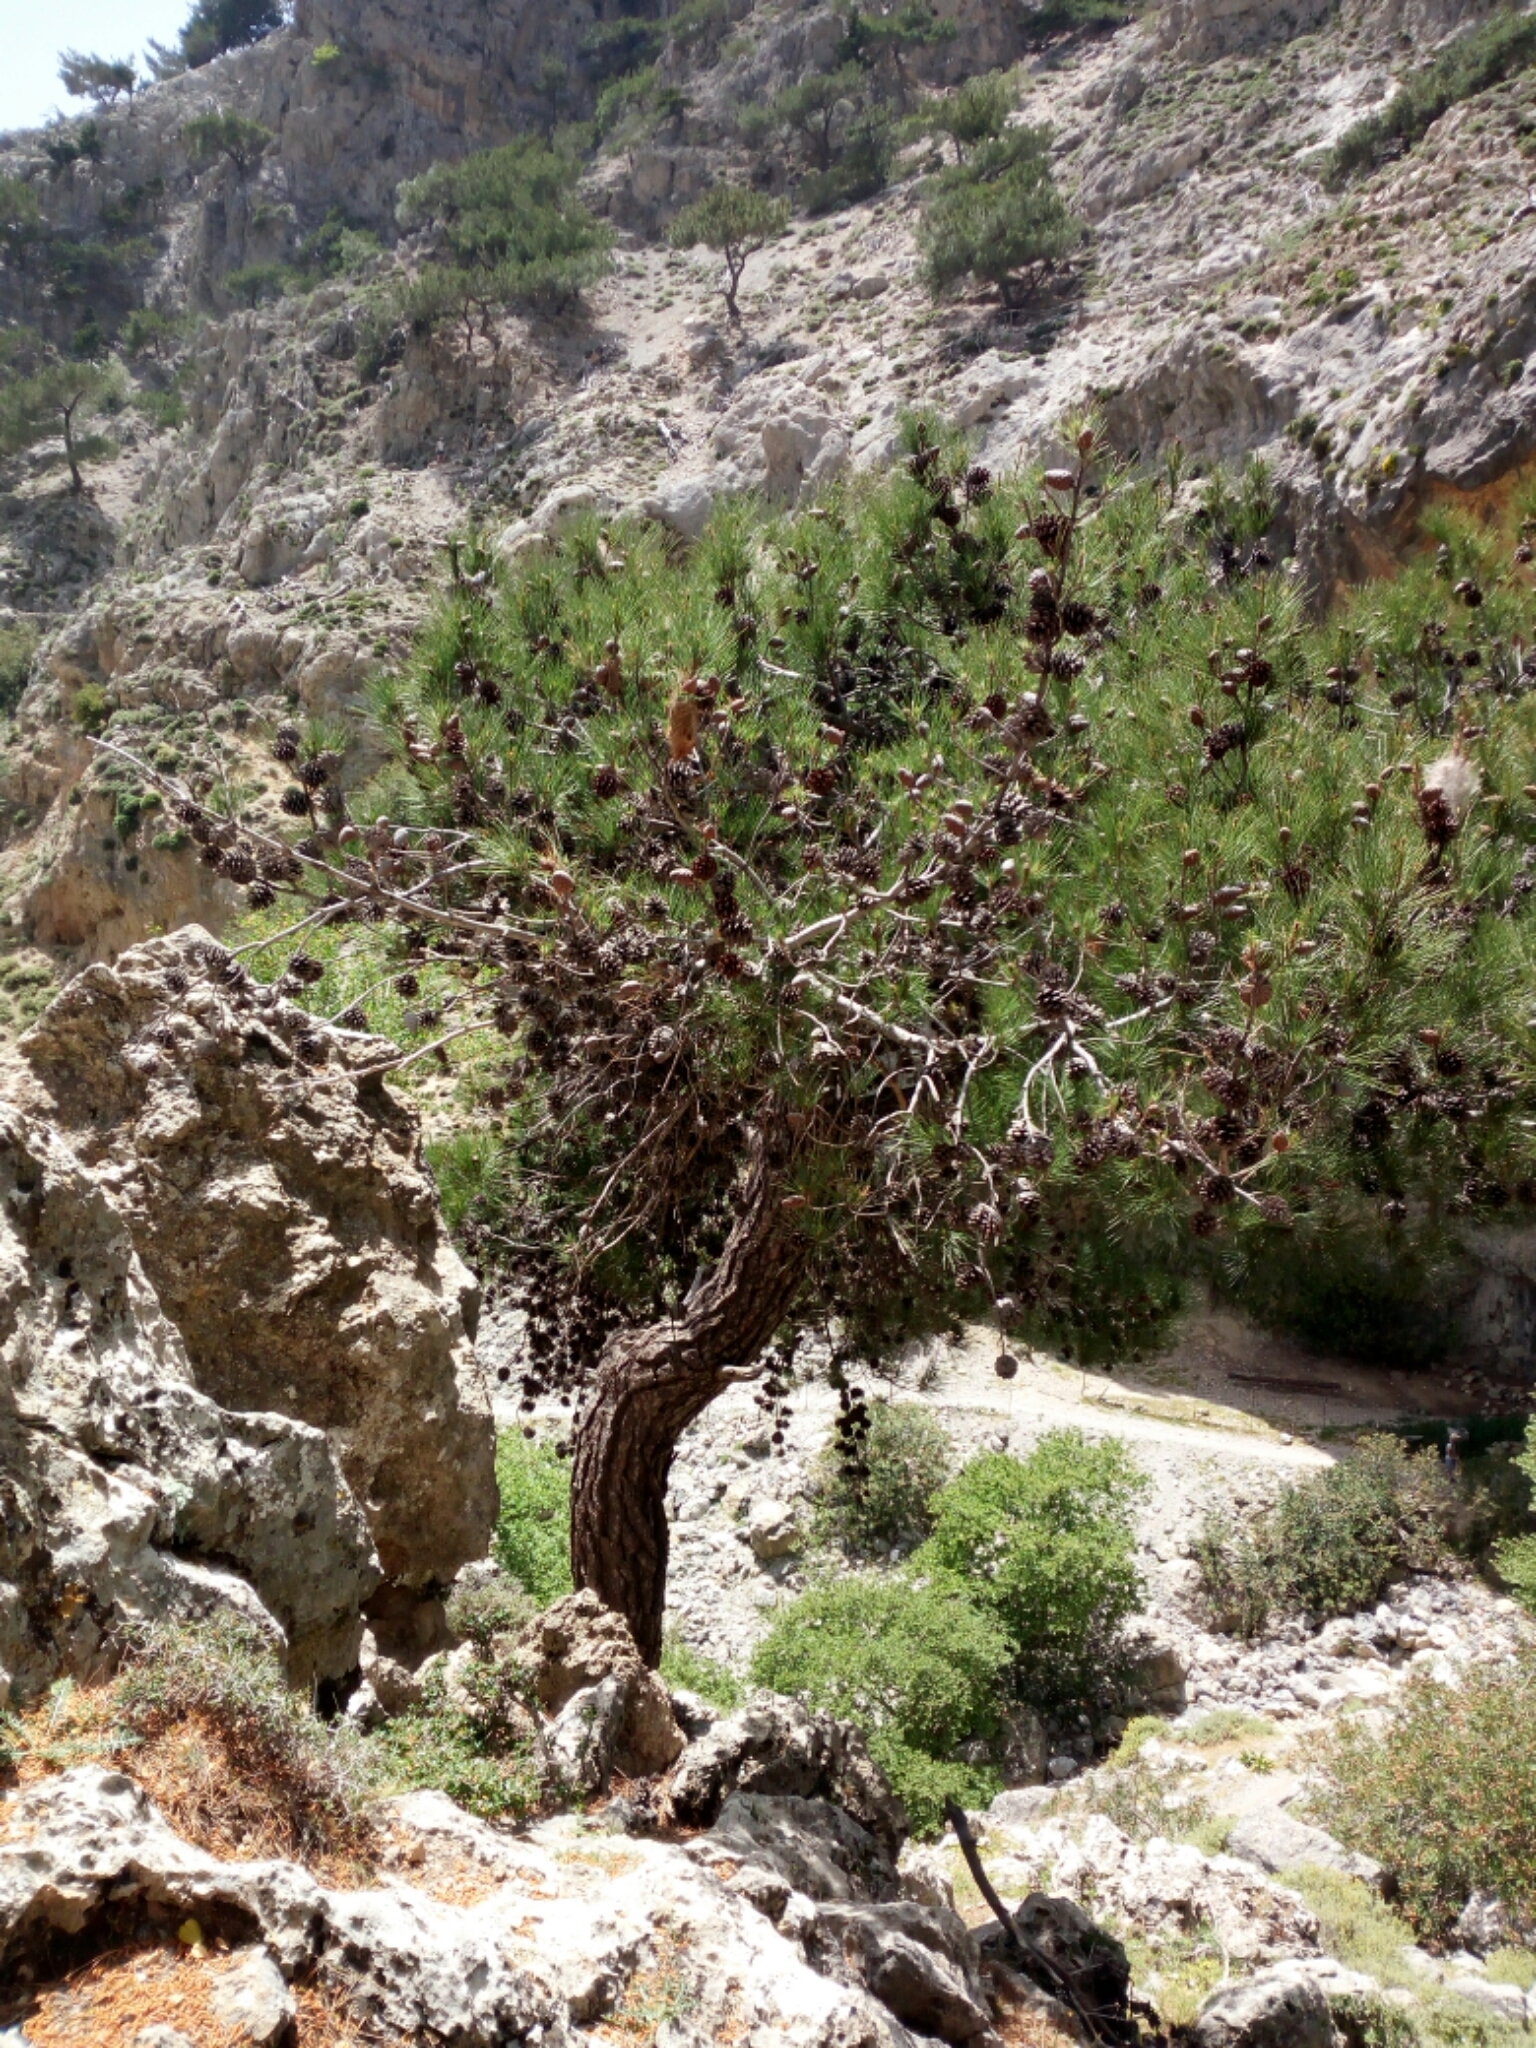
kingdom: Plantae
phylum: Tracheophyta
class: Pinopsida
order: Pinales
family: Pinaceae
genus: Pinus
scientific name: Pinus brutia
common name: Turkish pine
